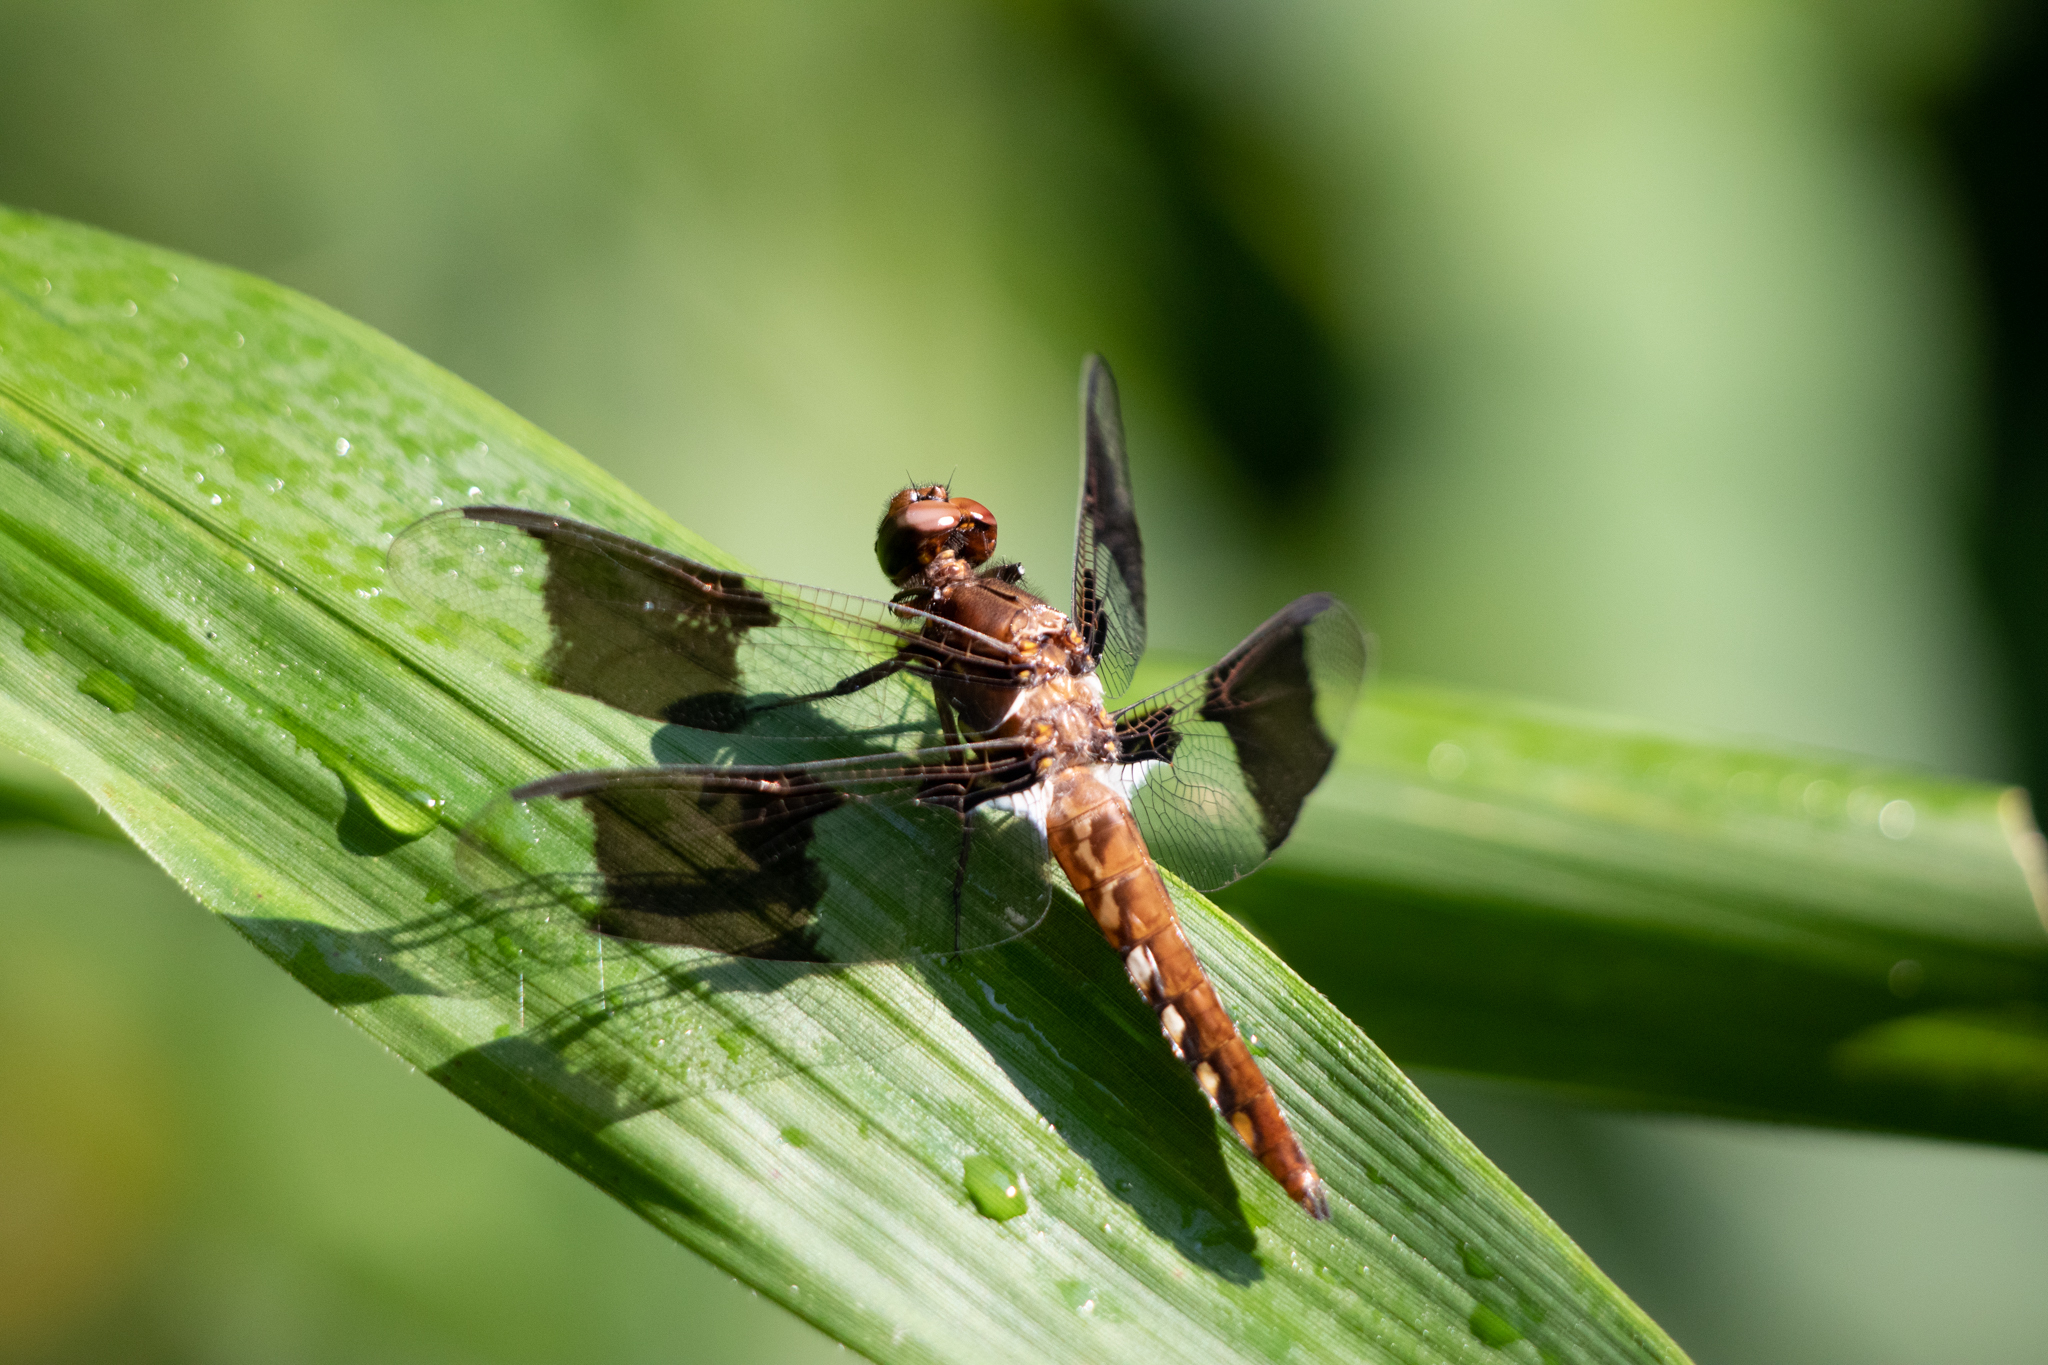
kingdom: Animalia
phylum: Arthropoda
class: Insecta
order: Odonata
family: Libellulidae
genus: Plathemis
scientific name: Plathemis lydia
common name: Common whitetail
